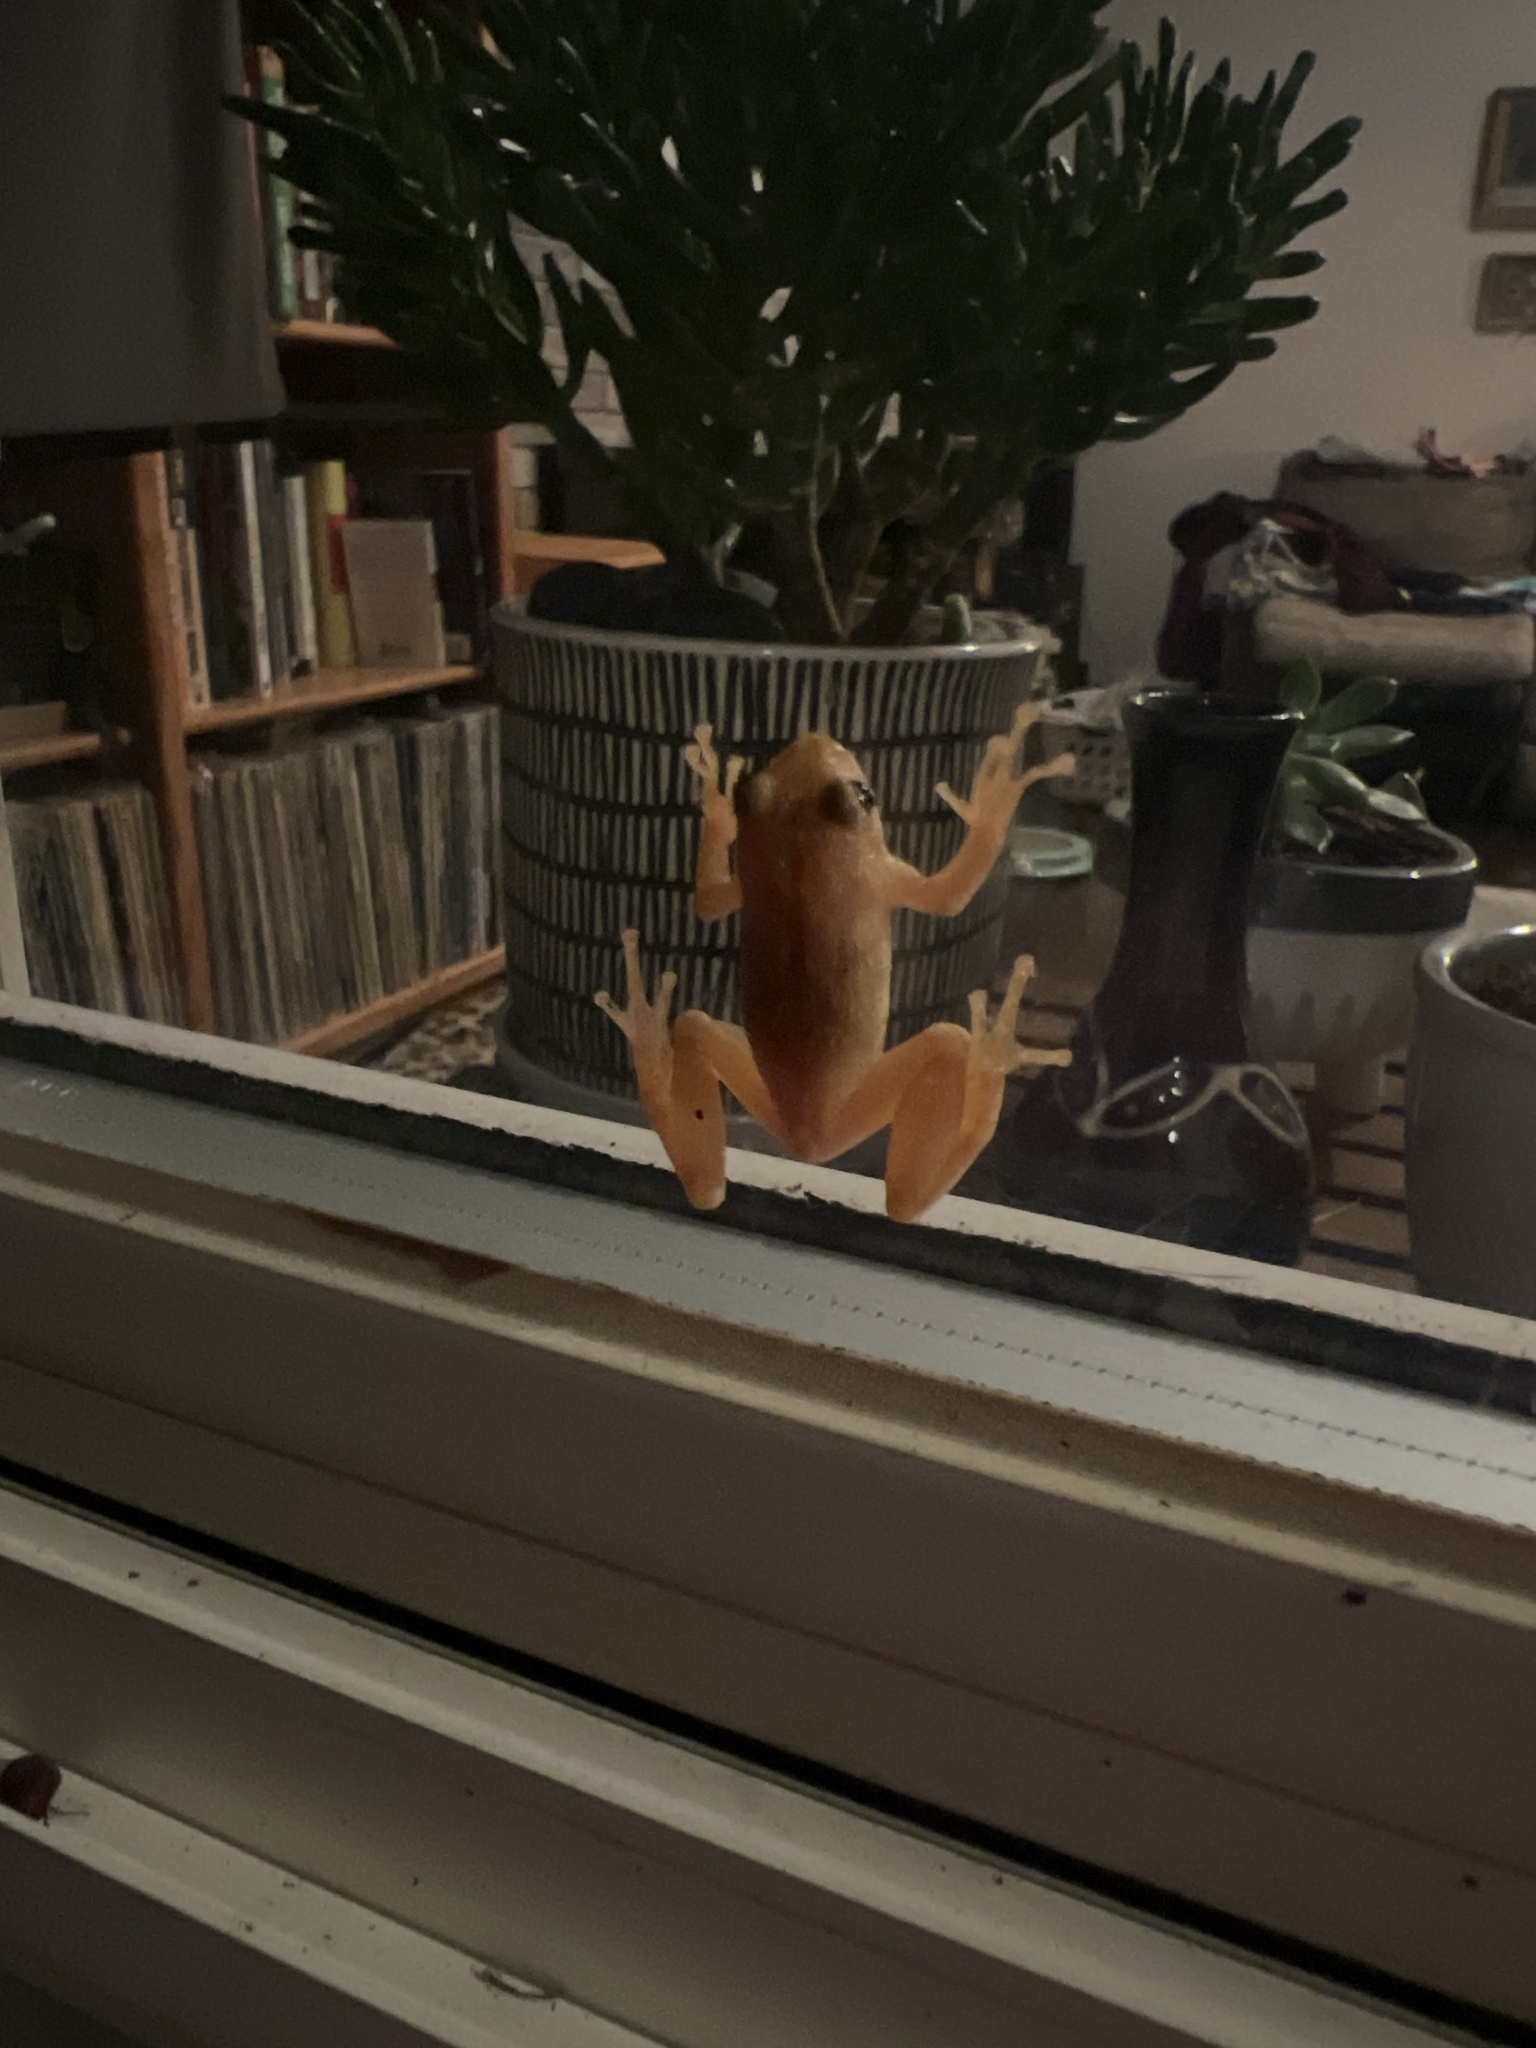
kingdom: Animalia
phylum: Chordata
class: Amphibia
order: Anura
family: Hylidae
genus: Pseudacris
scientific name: Pseudacris crucifer
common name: Spring peeper
